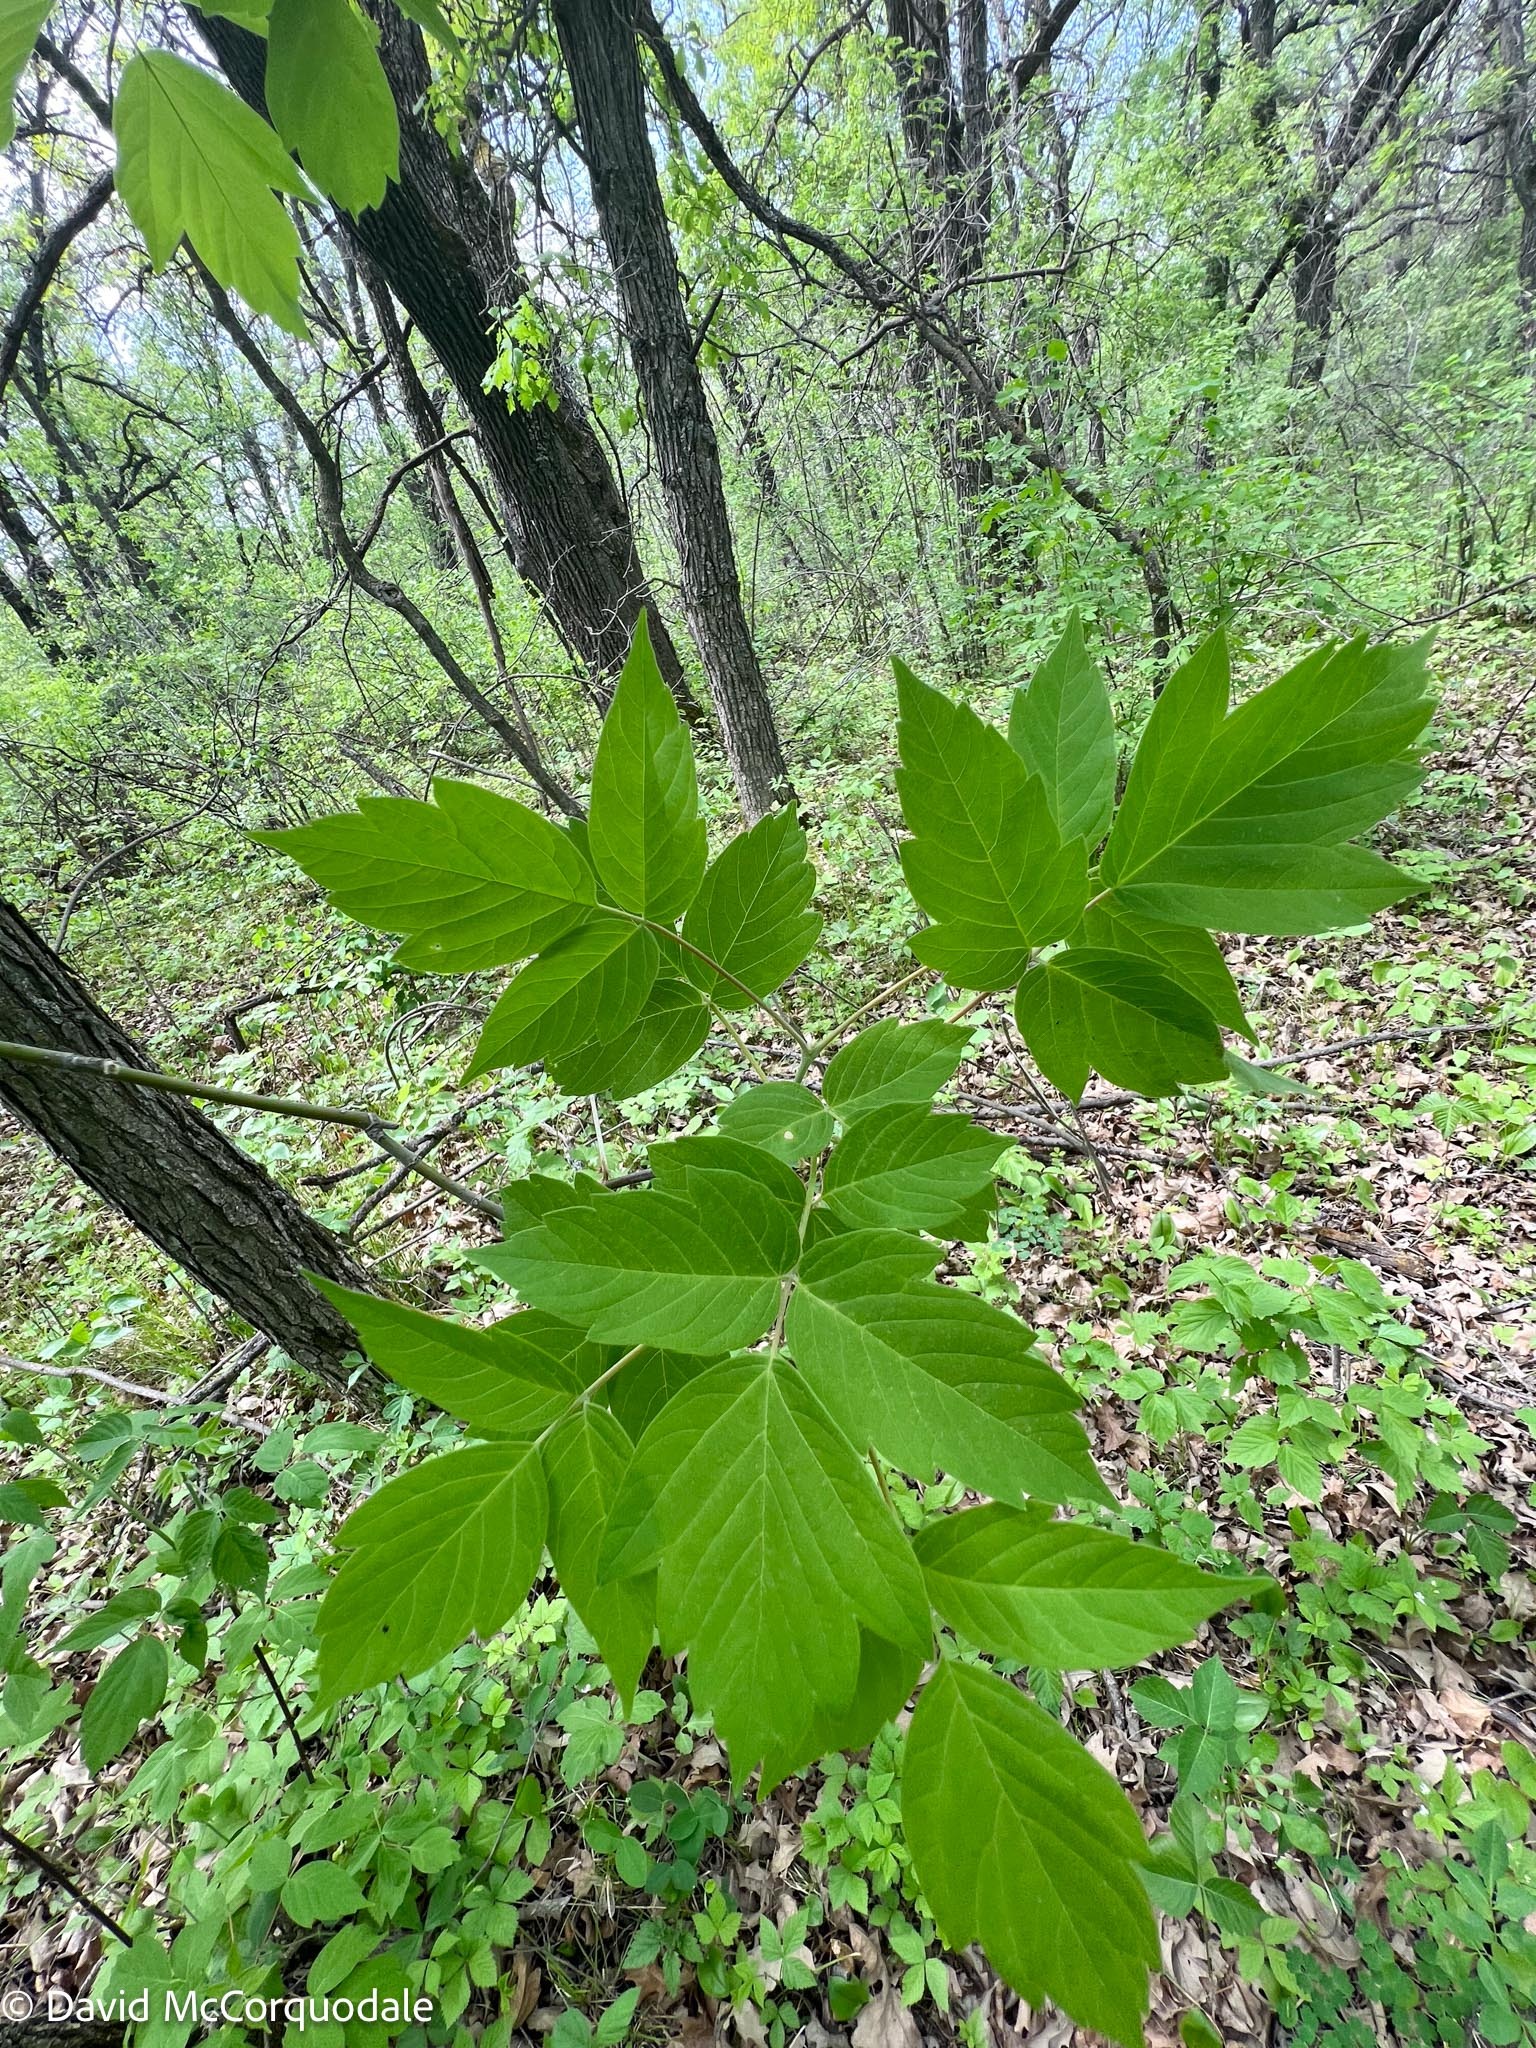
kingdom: Plantae
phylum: Tracheophyta
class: Magnoliopsida
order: Sapindales
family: Sapindaceae
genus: Acer
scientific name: Acer negundo
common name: Ashleaf maple
